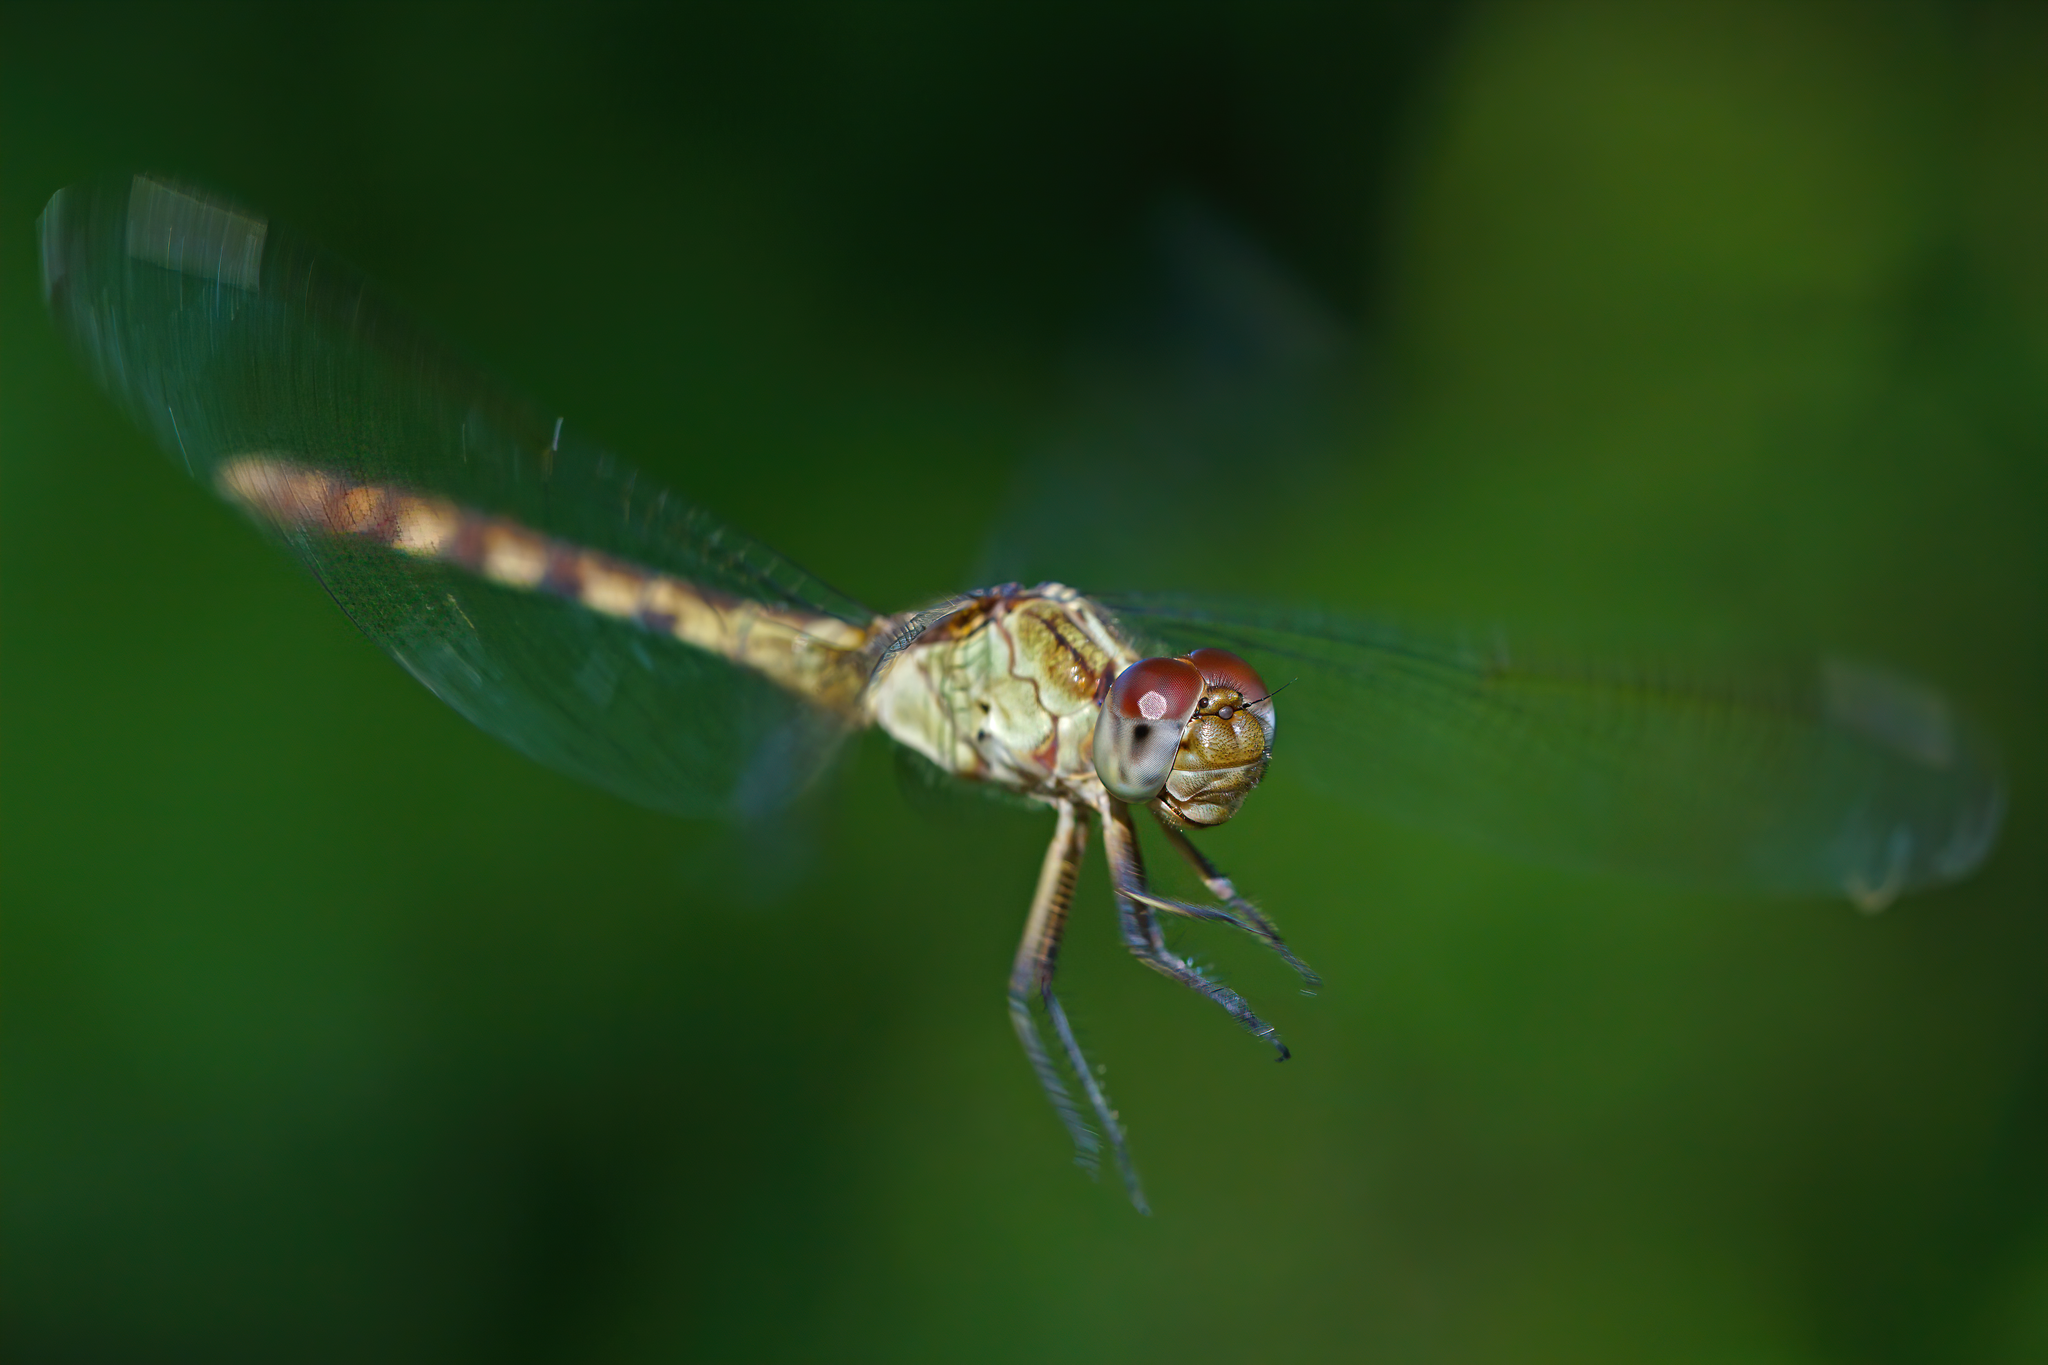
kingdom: Animalia
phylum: Arthropoda
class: Insecta
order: Odonata
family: Libellulidae
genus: Erythrodiplax
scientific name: Erythrodiplax umbrata
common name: Band-winged dragonlet
